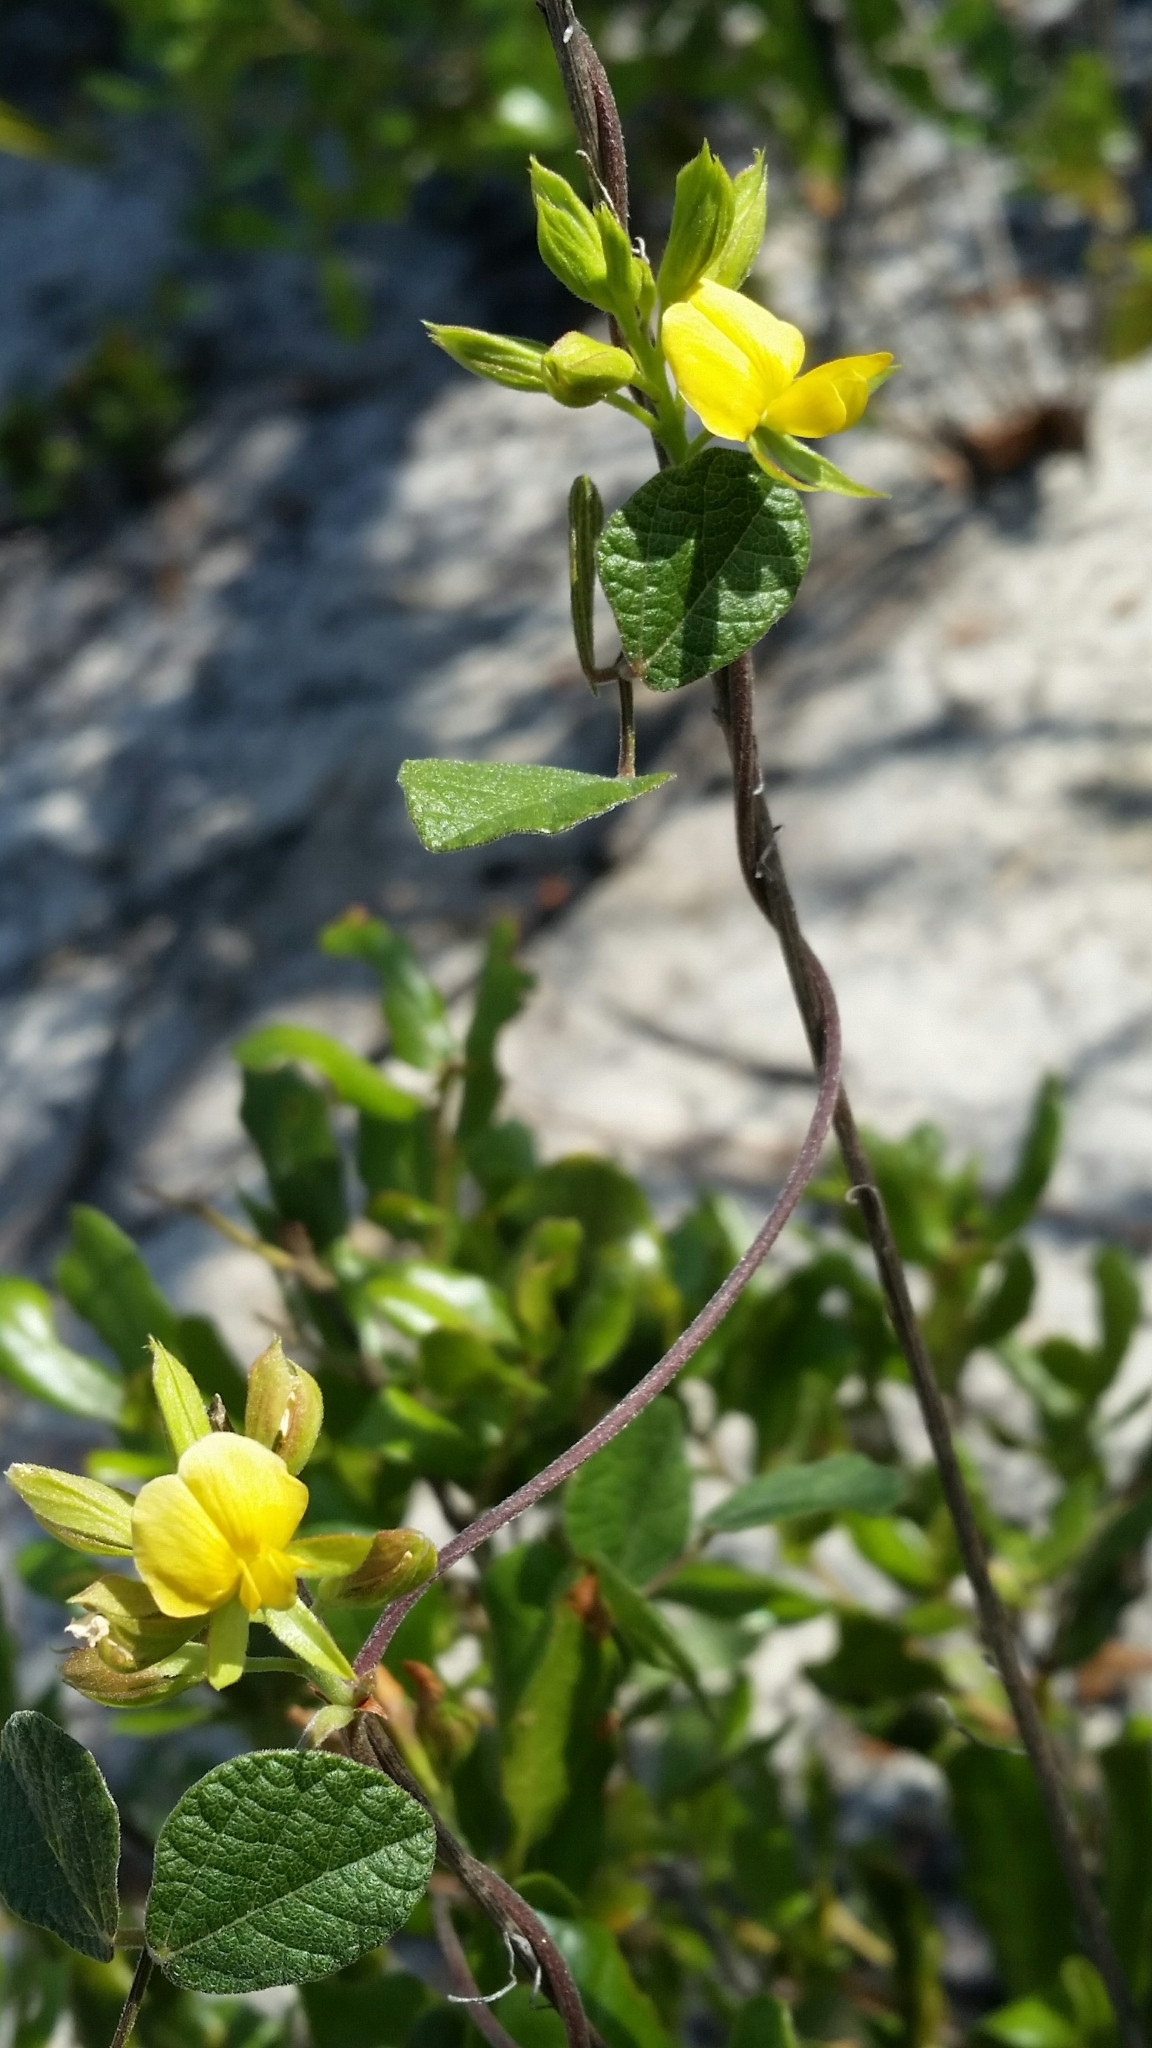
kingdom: Plantae
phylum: Tracheophyta
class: Magnoliopsida
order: Fabales
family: Fabaceae
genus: Rhynchosia
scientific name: Rhynchosia cinerea
